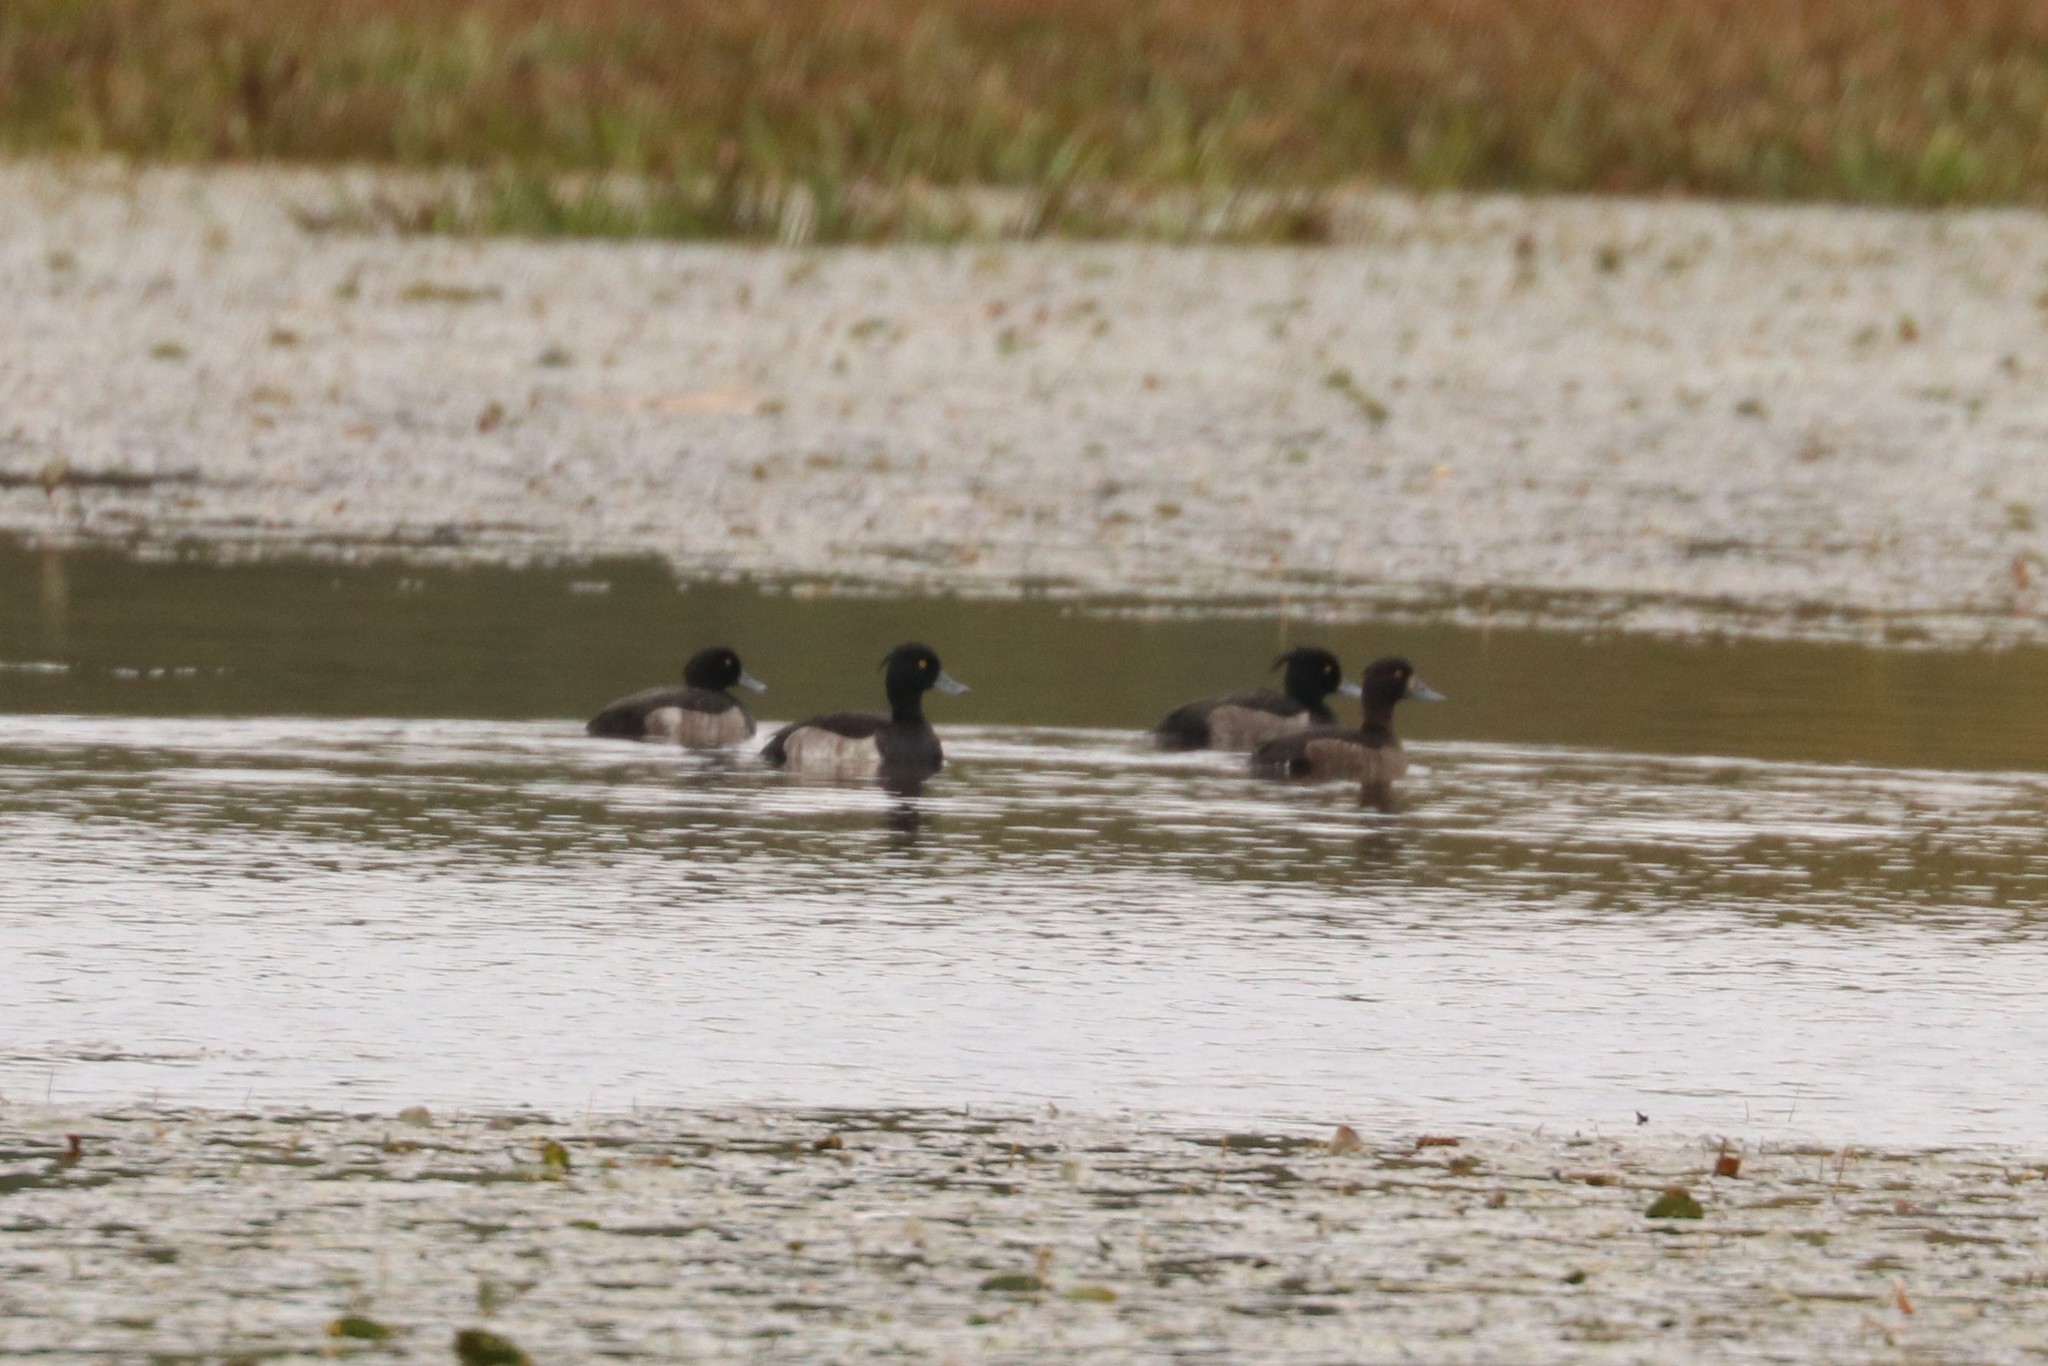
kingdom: Animalia
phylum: Chordata
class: Aves
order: Anseriformes
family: Anatidae
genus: Aythya
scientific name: Aythya fuligula
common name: Tufted duck
